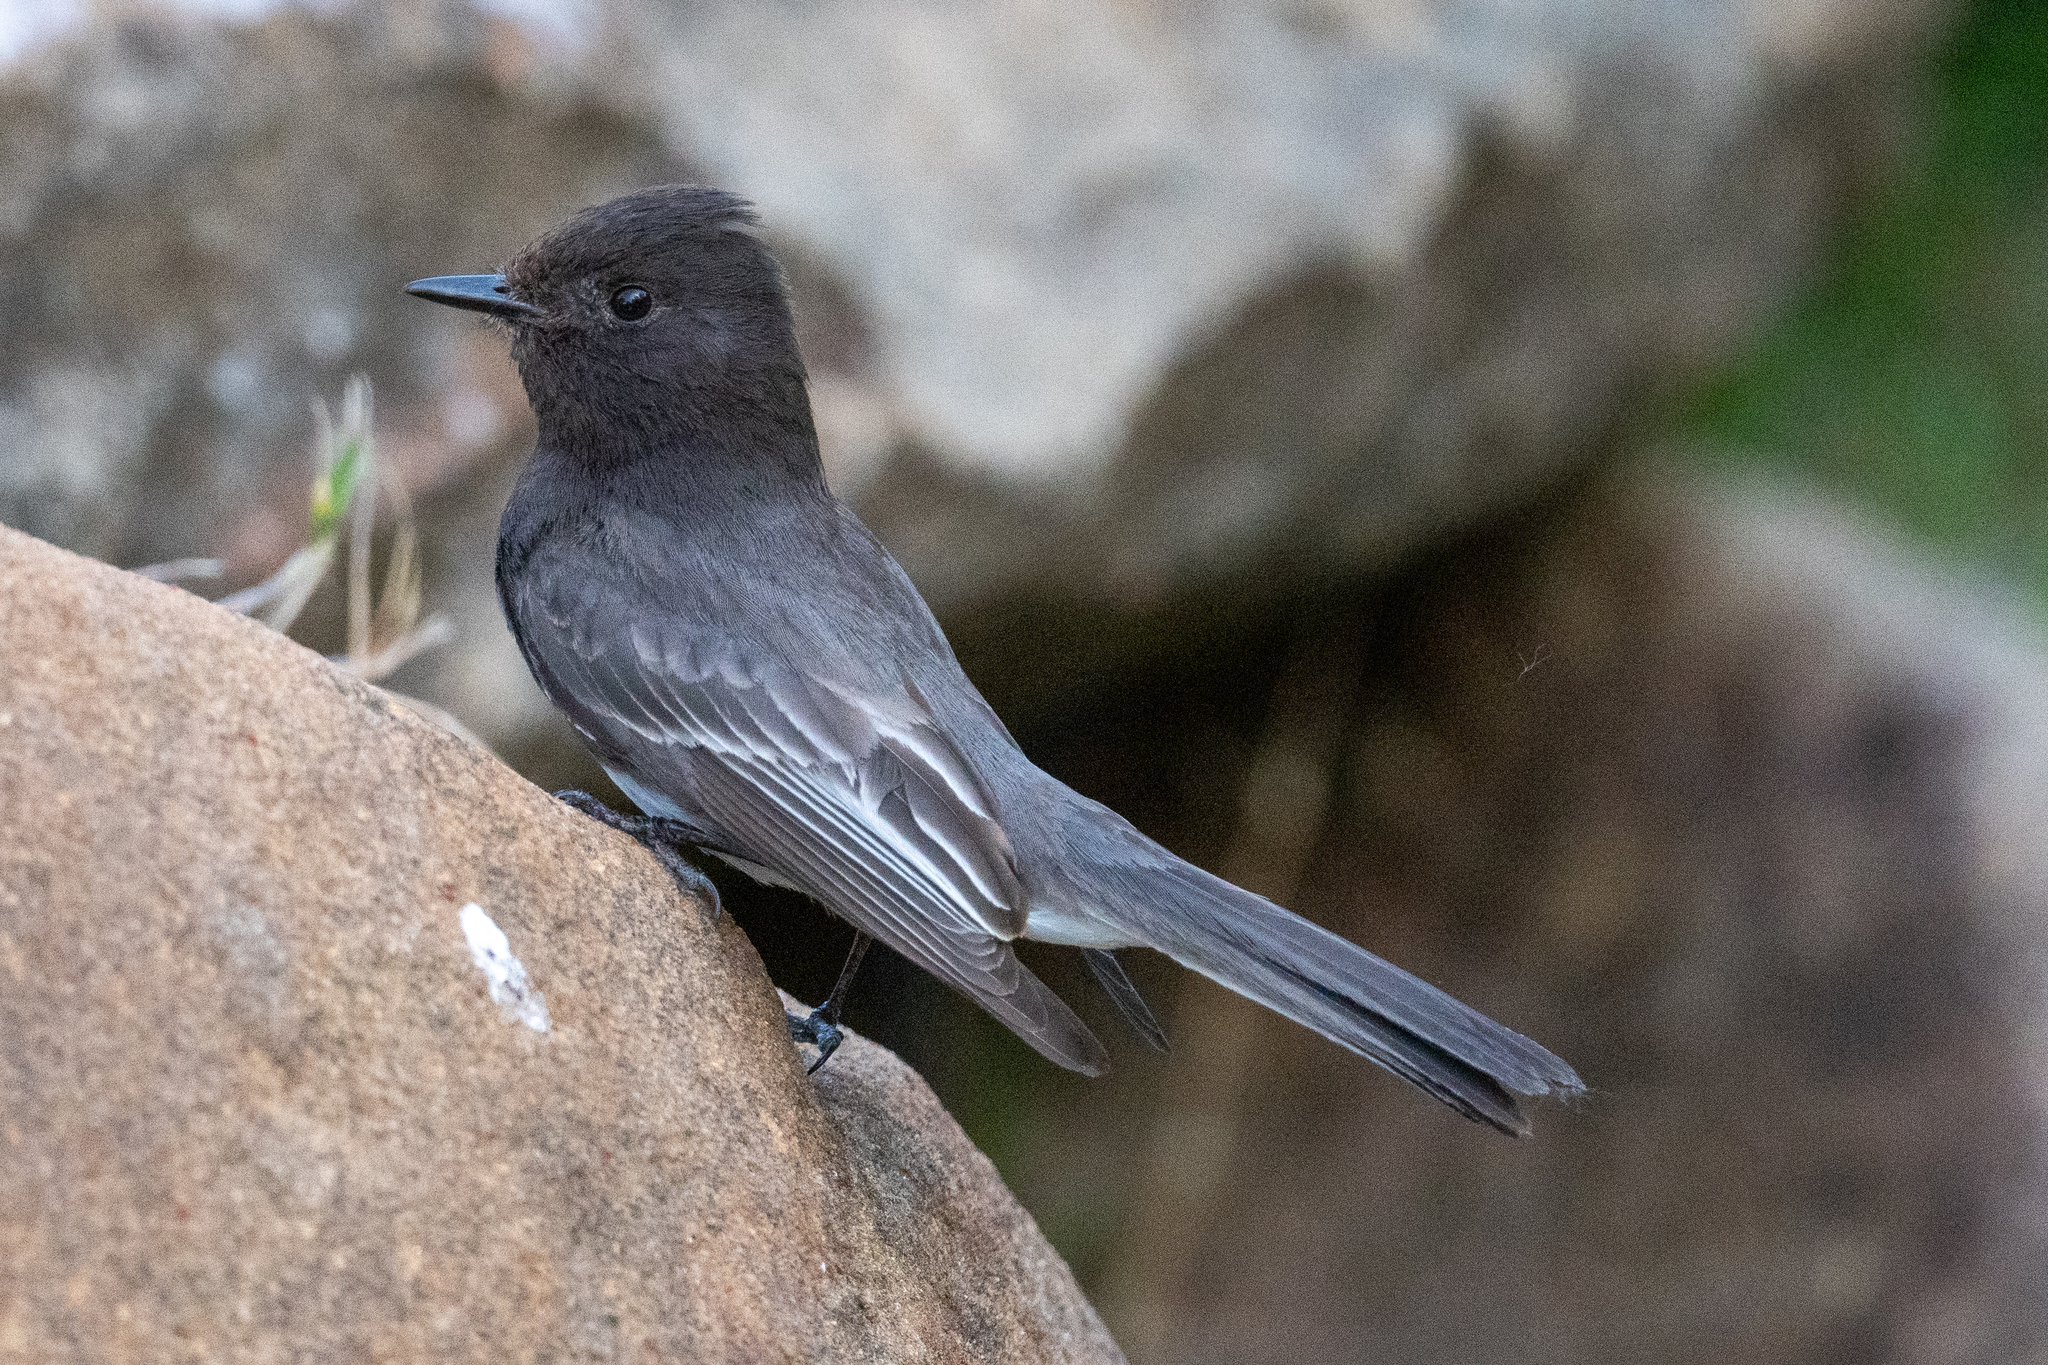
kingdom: Animalia
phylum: Chordata
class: Aves
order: Passeriformes
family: Tyrannidae
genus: Sayornis
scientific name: Sayornis nigricans
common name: Black phoebe
